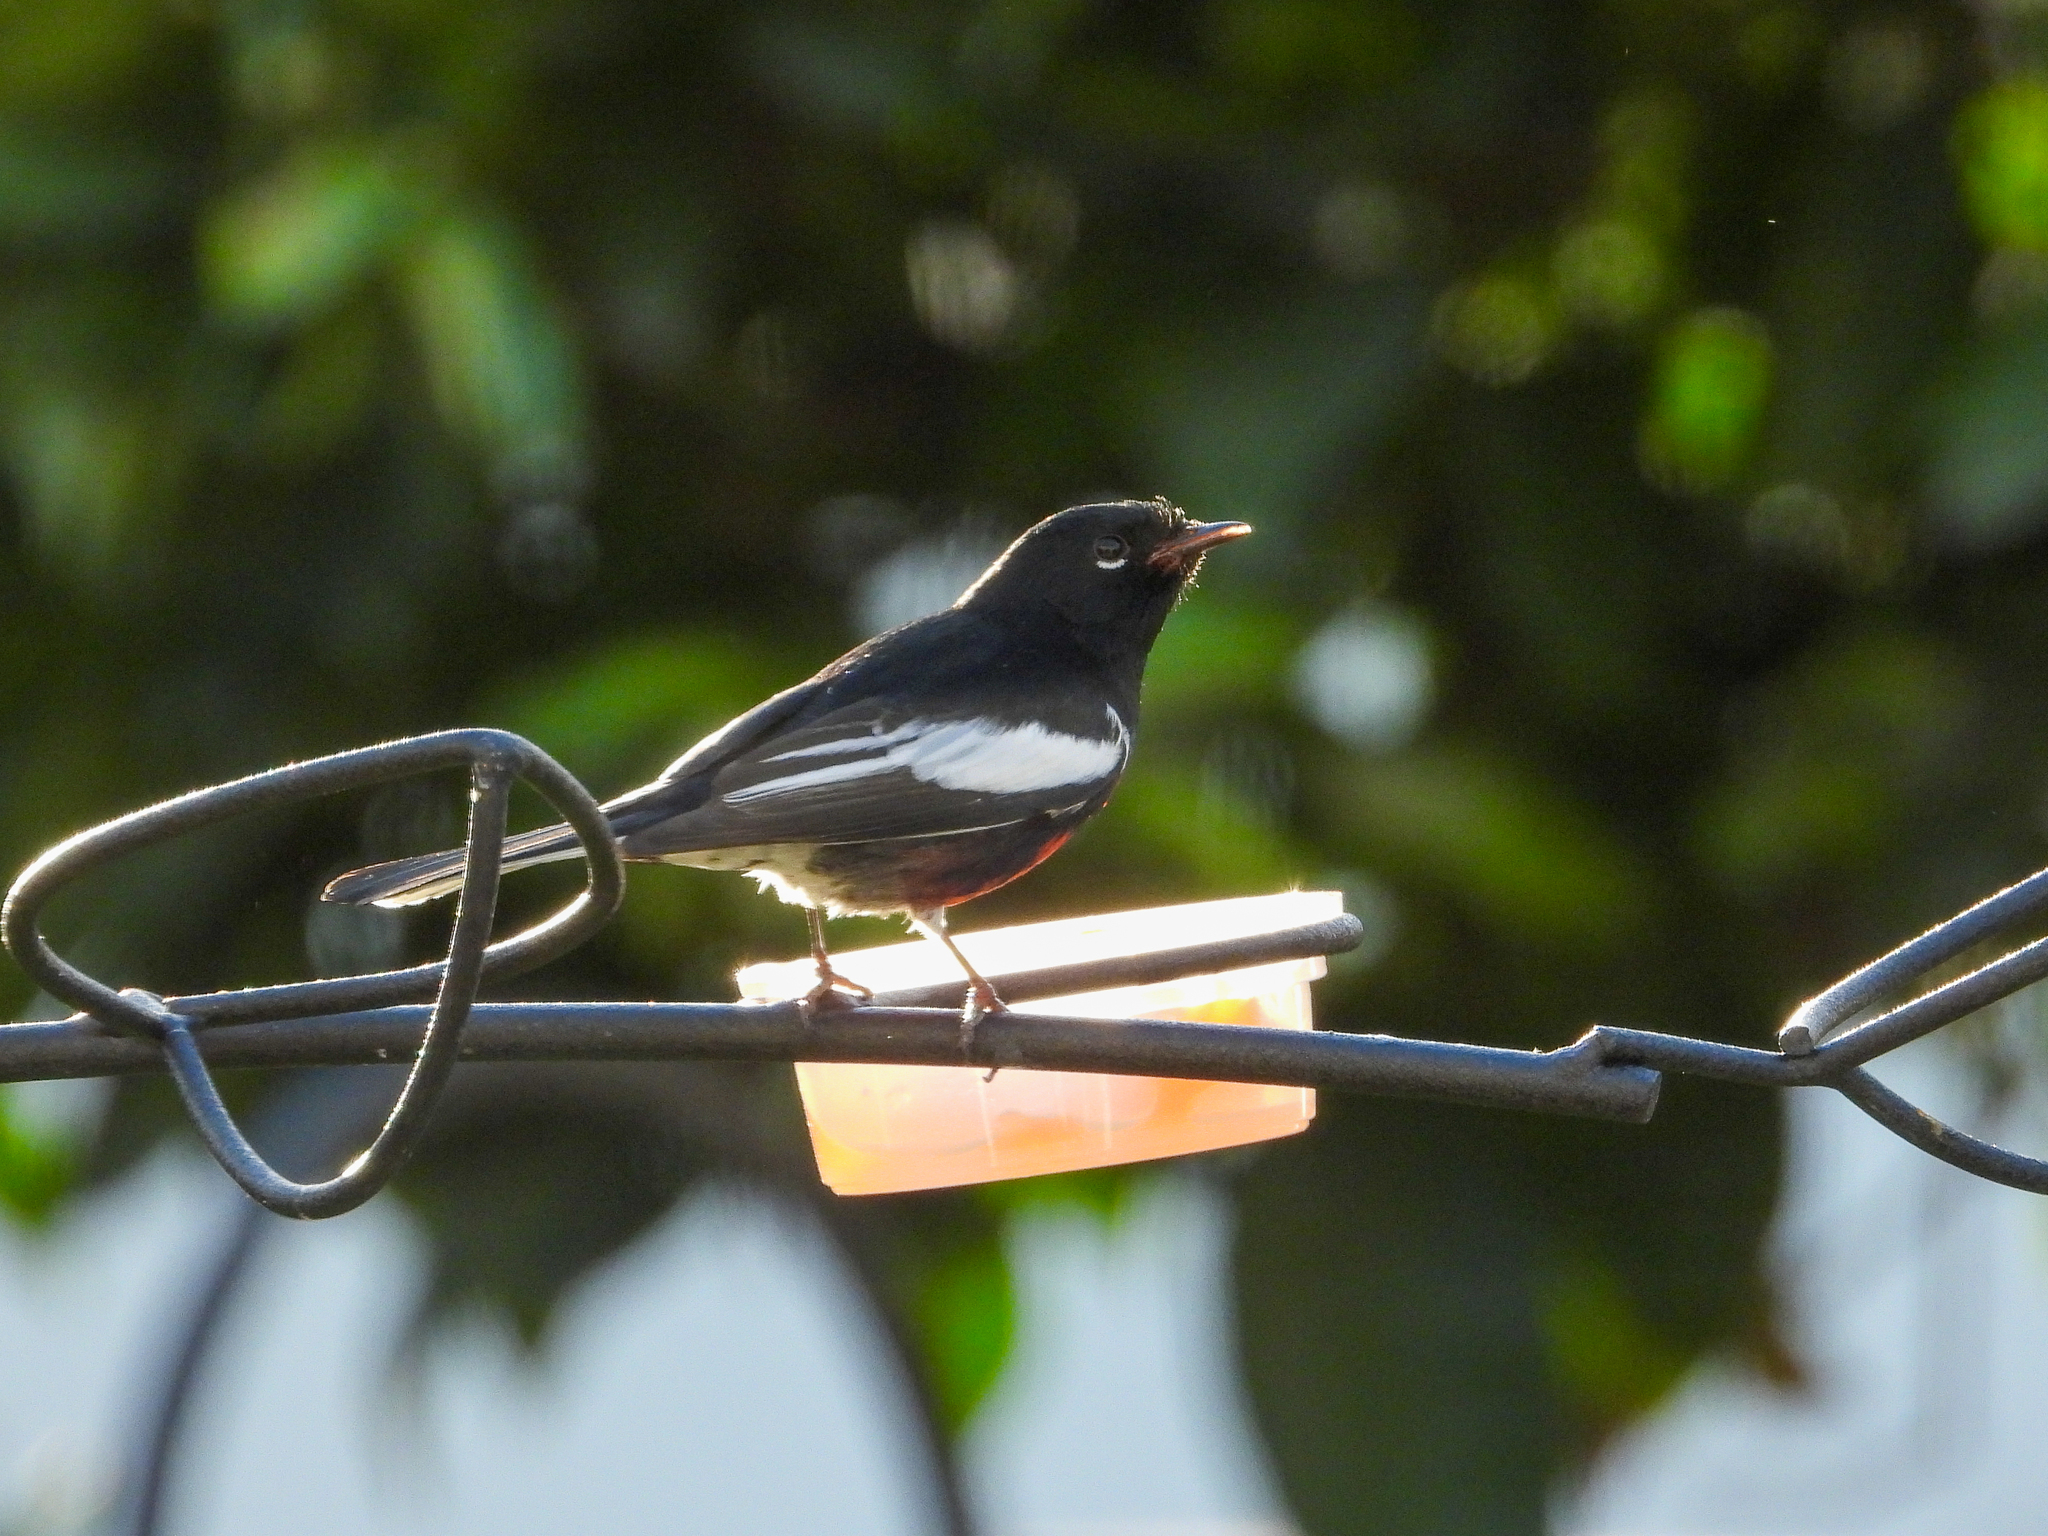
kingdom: Animalia
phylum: Chordata
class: Aves
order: Passeriformes
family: Parulidae
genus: Myioborus
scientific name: Myioborus pictus
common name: Painted whitestart
